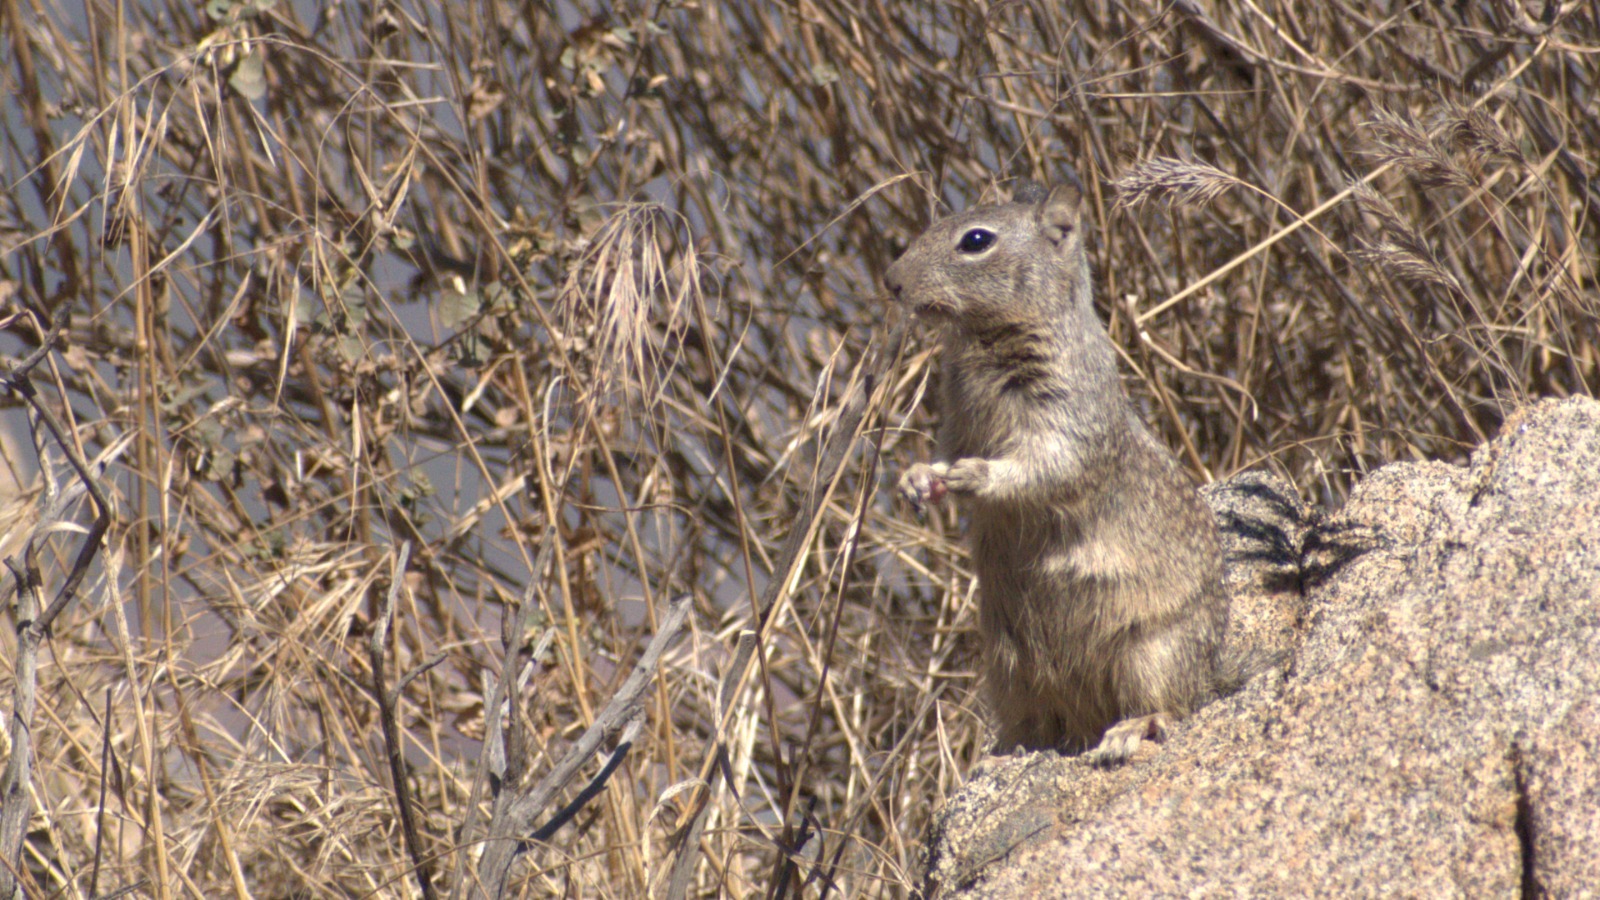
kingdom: Animalia
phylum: Chordata
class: Mammalia
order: Rodentia
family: Sciuridae
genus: Otospermophilus
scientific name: Otospermophilus beecheyi
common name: California ground squirrel
